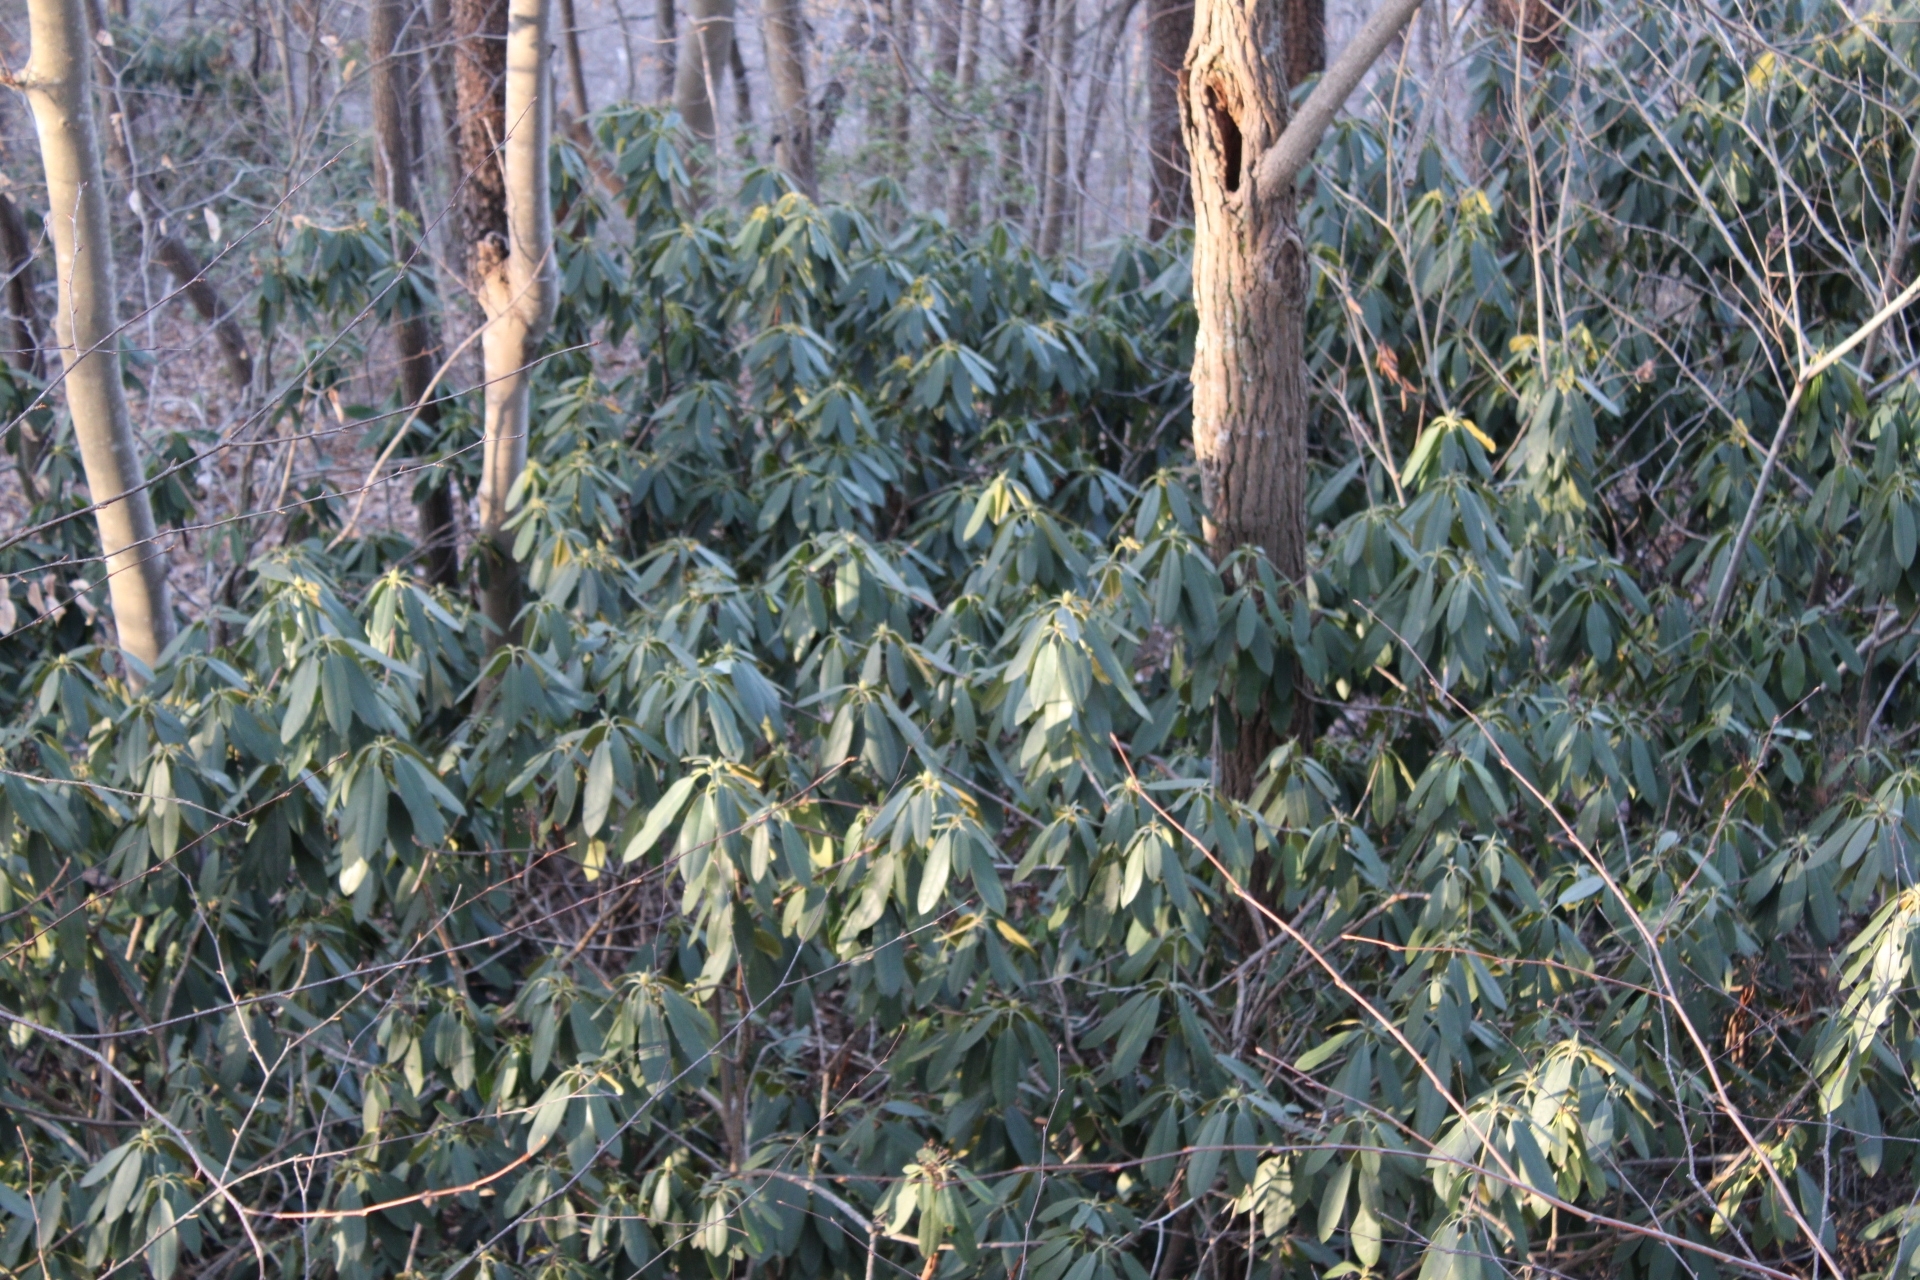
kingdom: Plantae
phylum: Tracheophyta
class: Magnoliopsida
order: Ericales
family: Ericaceae
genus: Rhododendron
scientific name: Rhododendron maximum
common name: Great rhododendron
